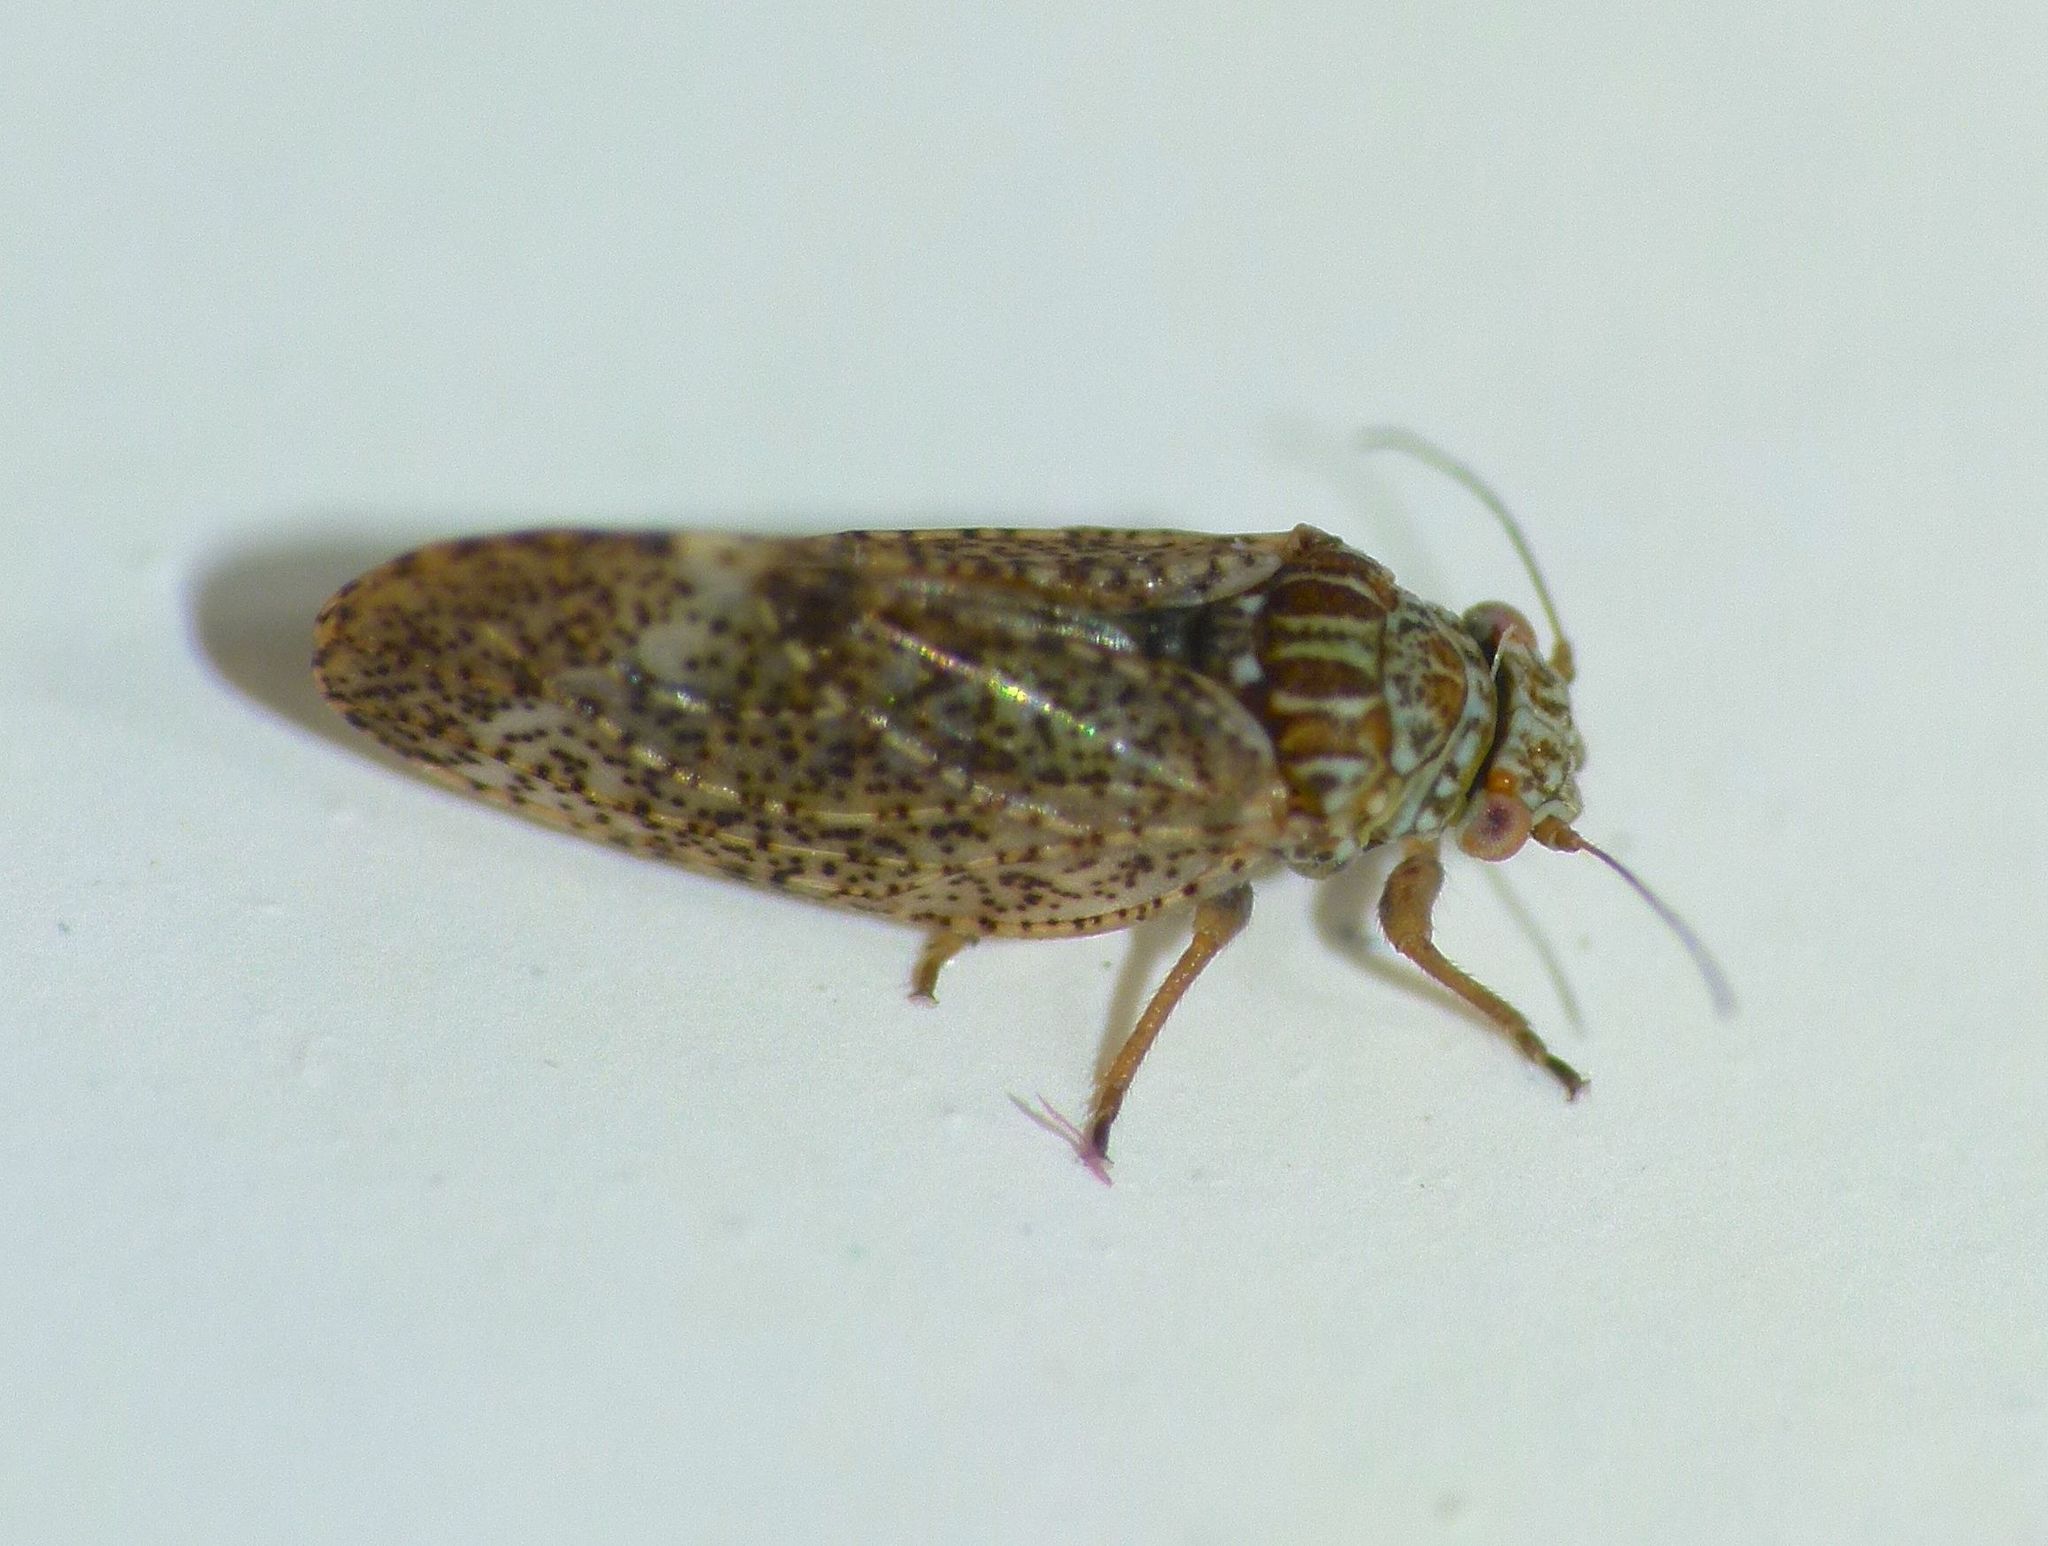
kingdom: Animalia
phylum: Arthropoda
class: Insecta
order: Hemiptera
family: Psyllidae
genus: Acizzia
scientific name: Acizzia apicalis
